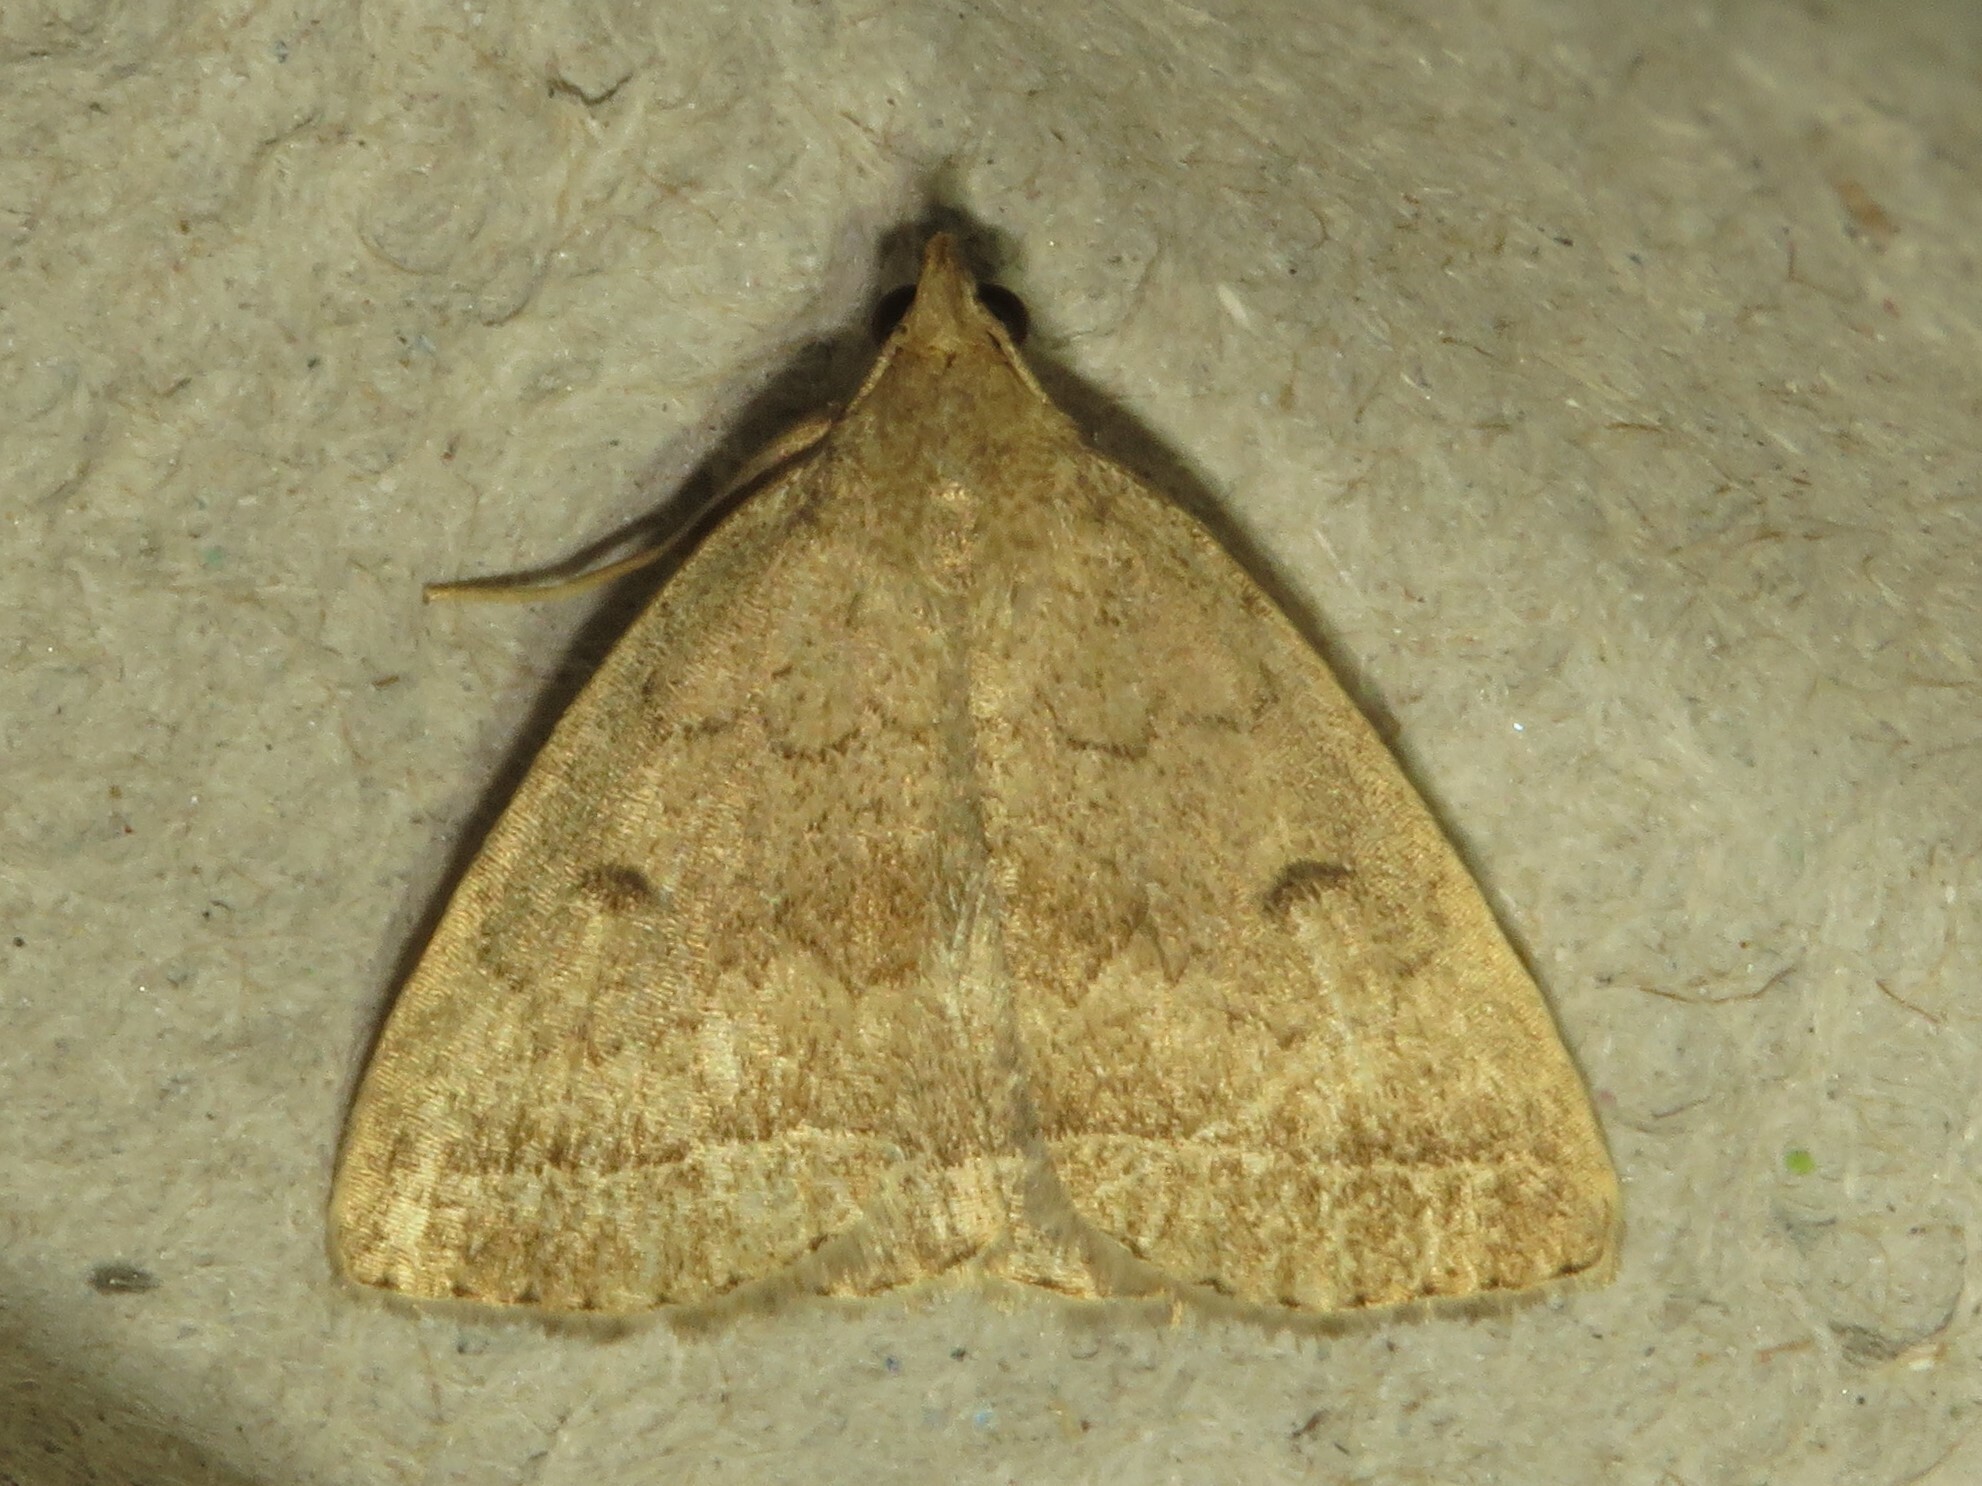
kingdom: Animalia
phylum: Arthropoda
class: Insecta
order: Lepidoptera
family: Erebidae
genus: Zanclognatha
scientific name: Zanclognatha jacchusalis
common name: Yellowish zanclognatha
